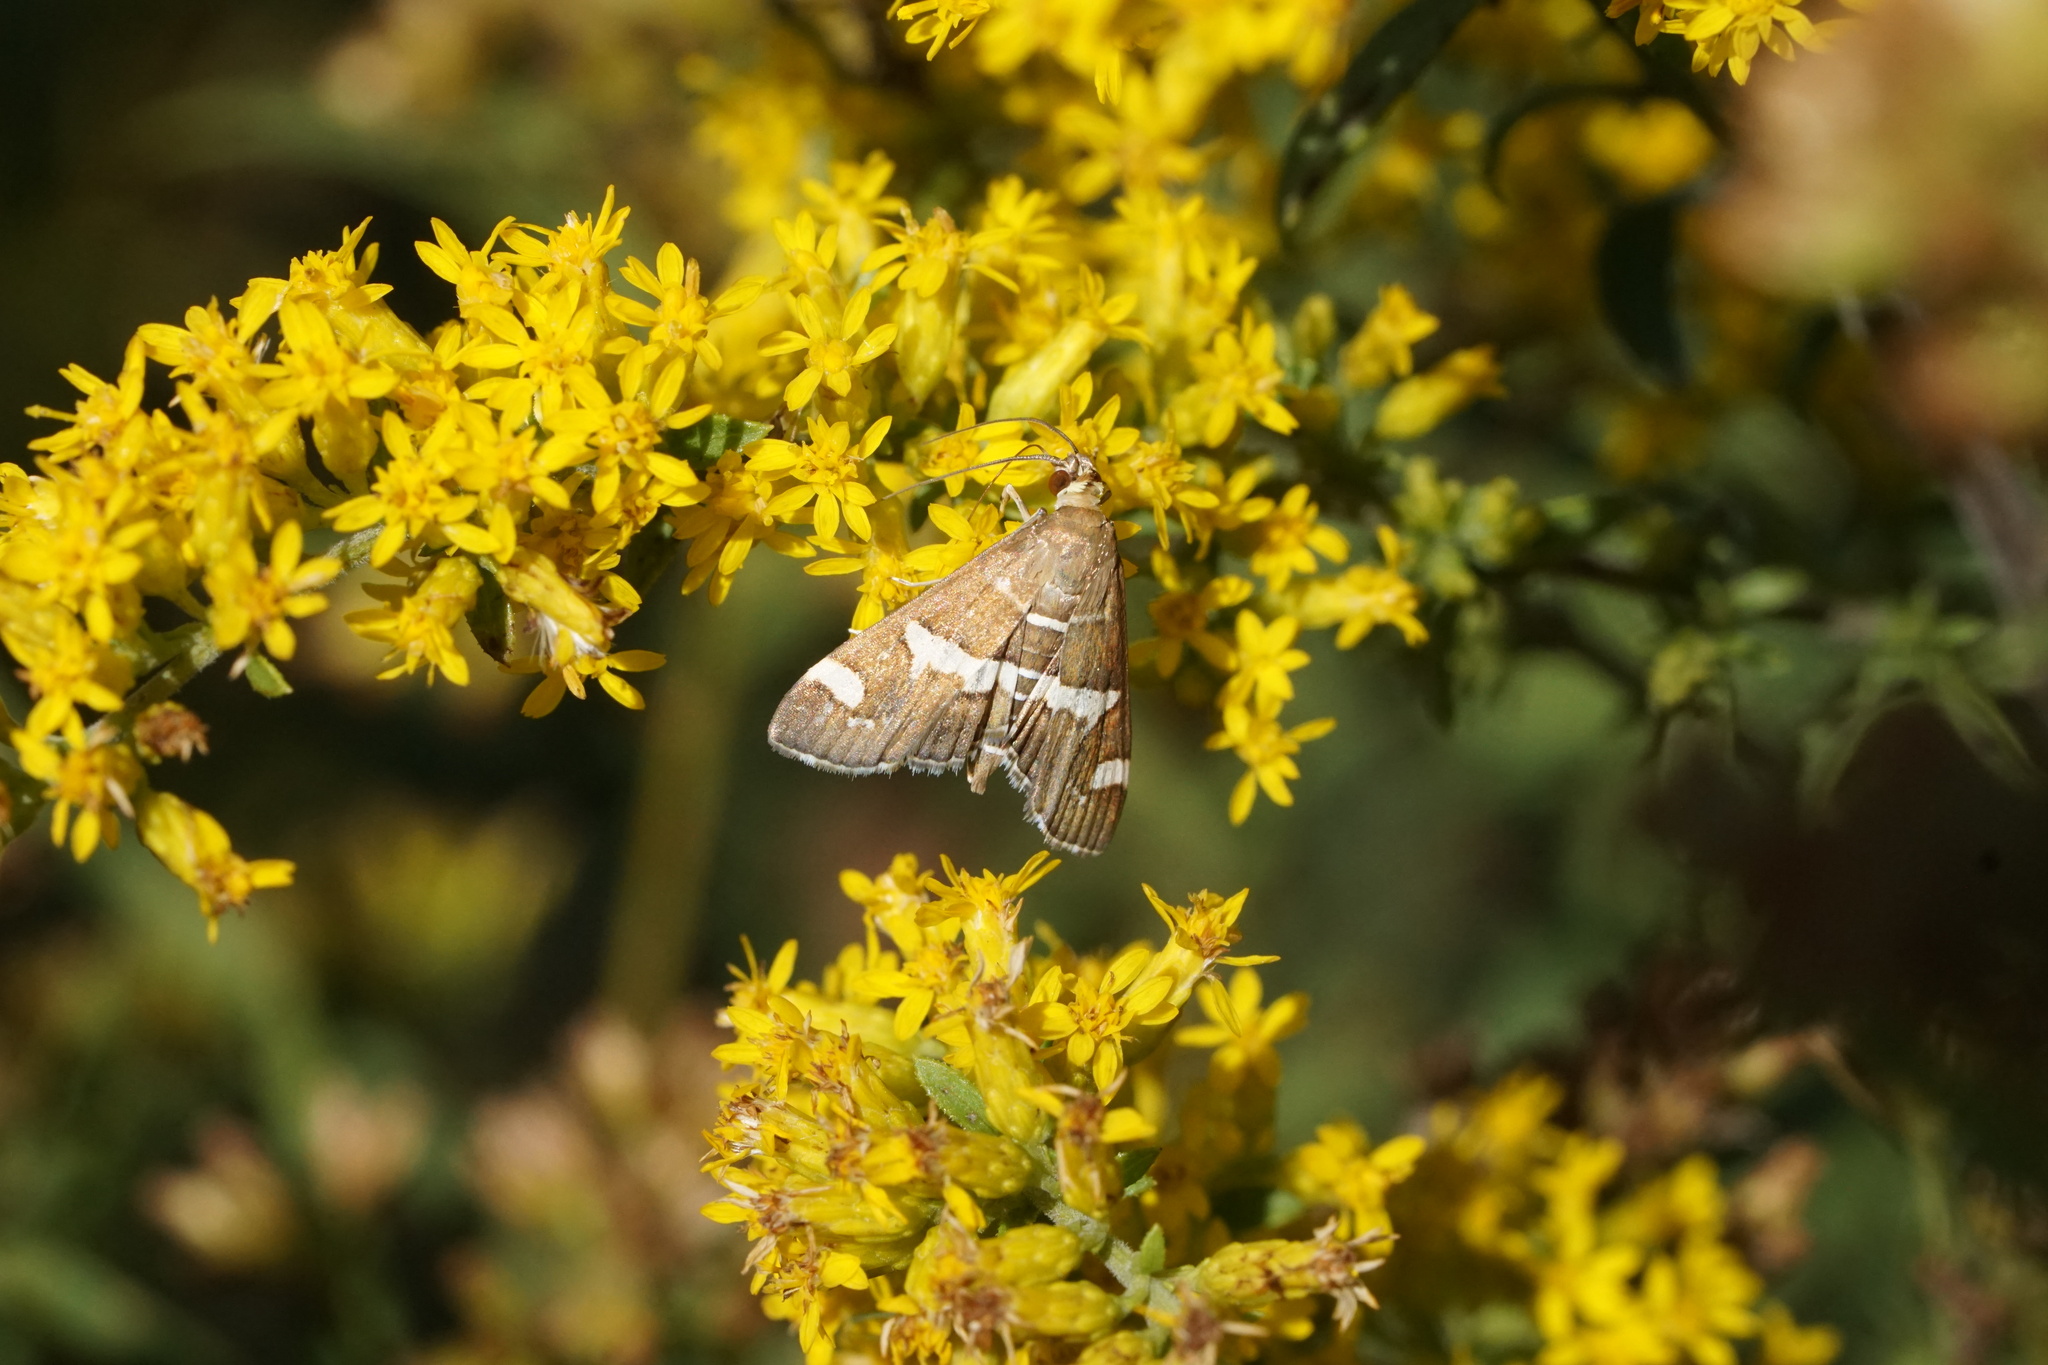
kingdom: Animalia
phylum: Arthropoda
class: Insecta
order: Lepidoptera
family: Crambidae
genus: Spoladea
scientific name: Spoladea recurvalis
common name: Beet webworm moth
